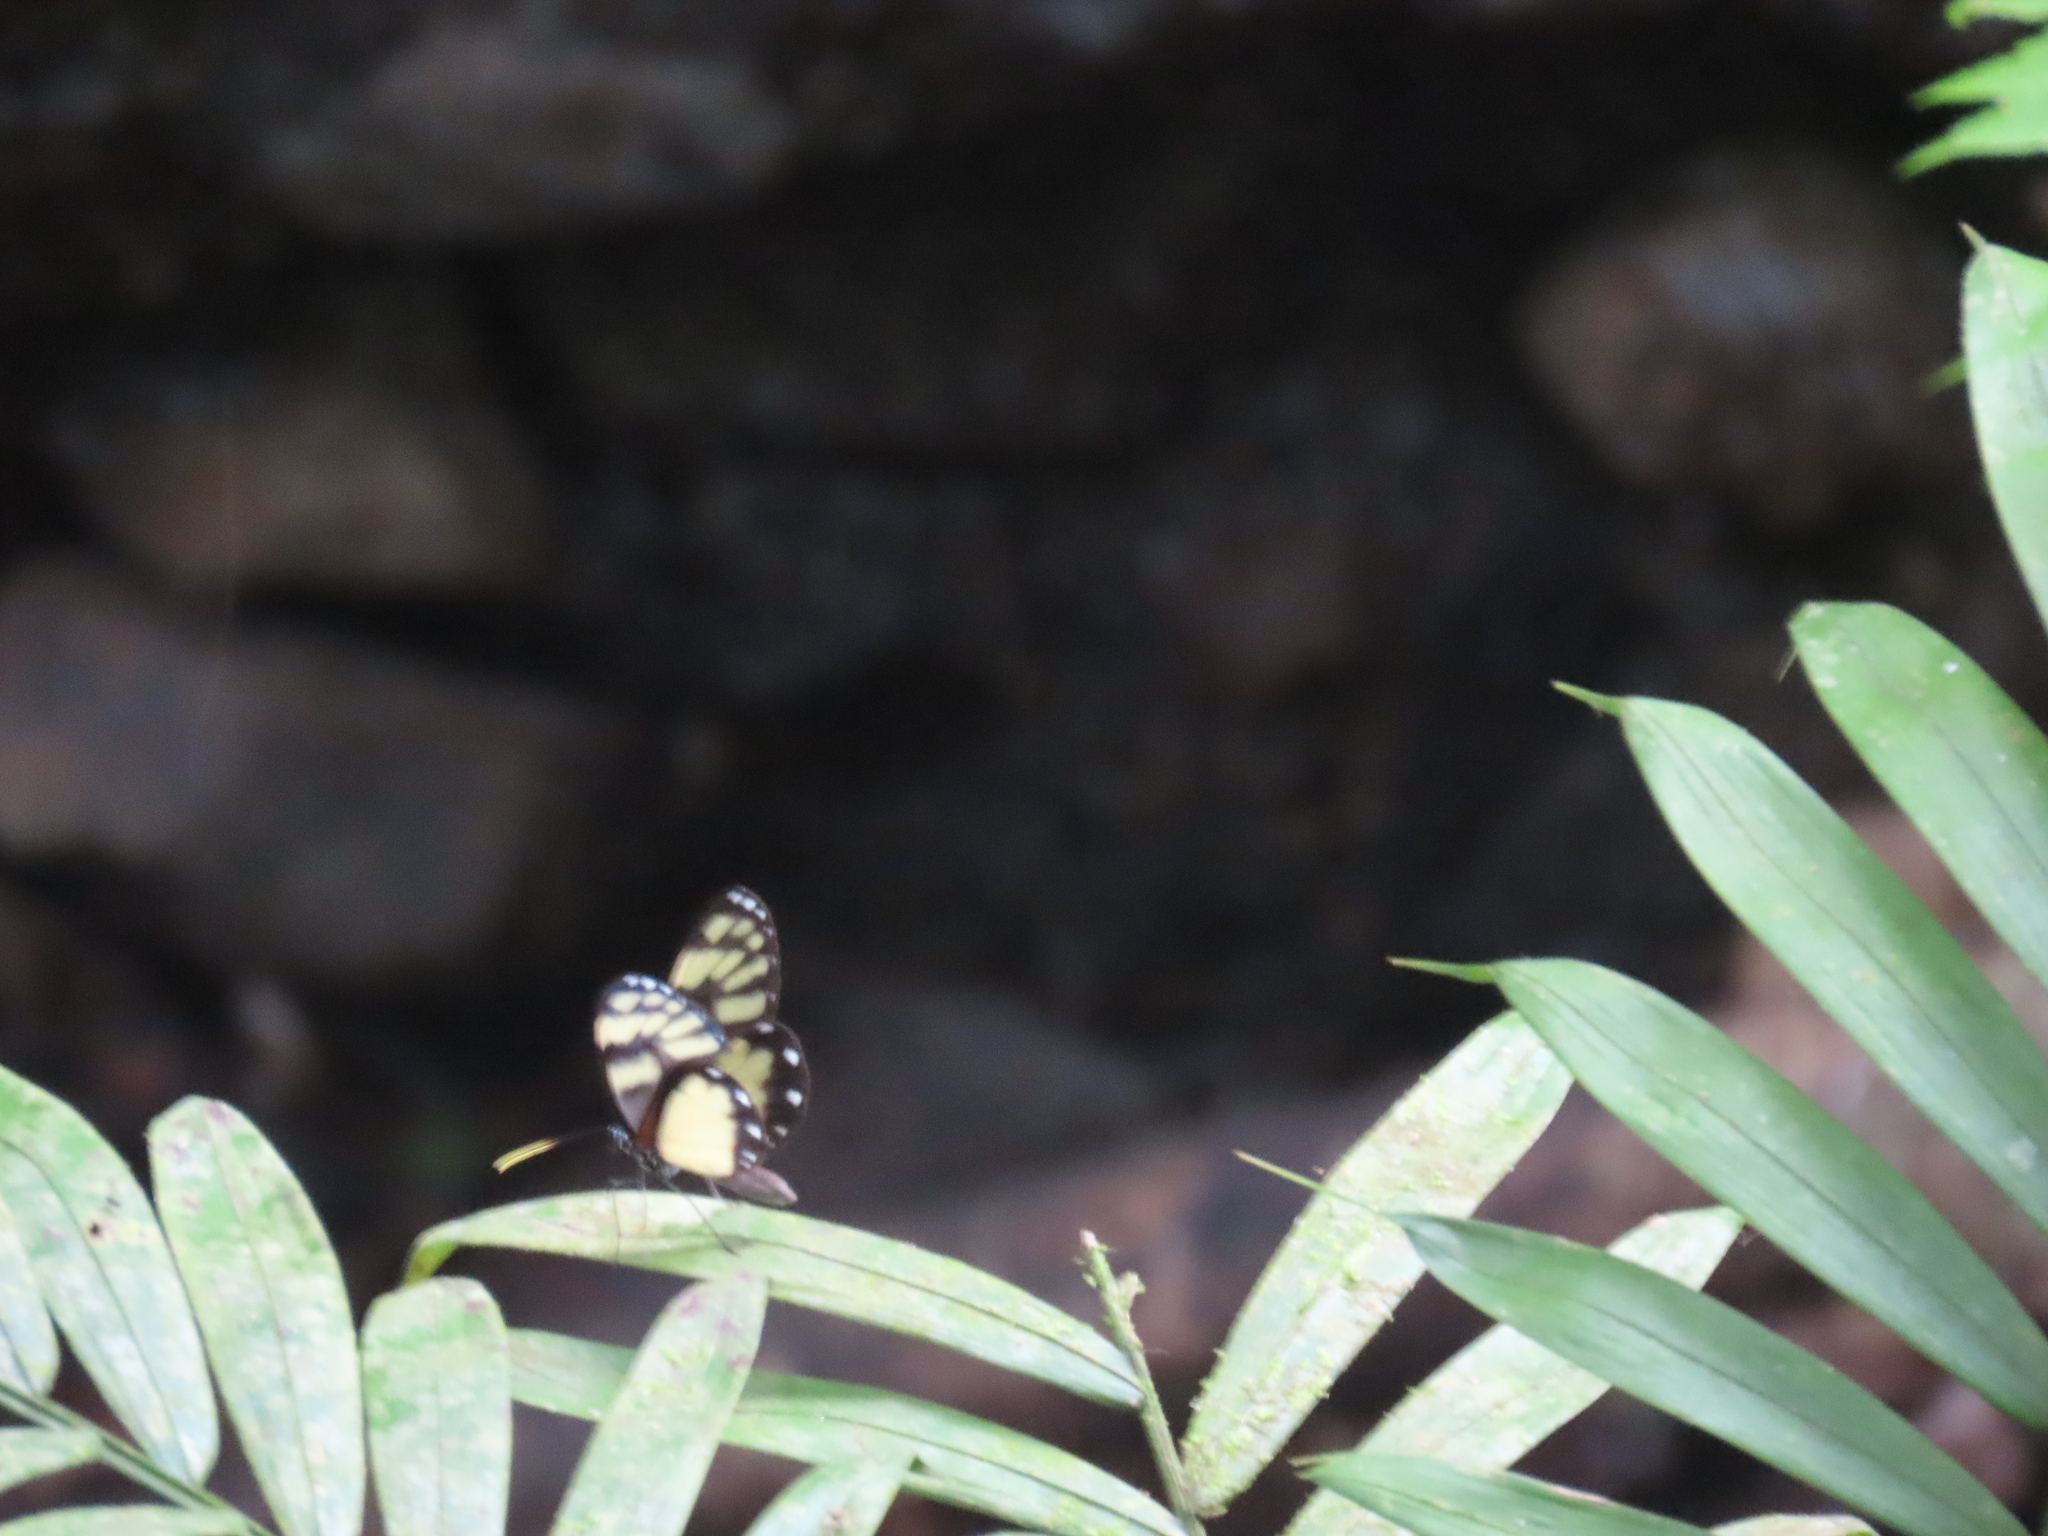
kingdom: Animalia
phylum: Arthropoda
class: Insecta
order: Lepidoptera
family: Nymphalidae
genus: Godyris
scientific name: Godyris zavaleta
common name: Zavaleta glasswing
